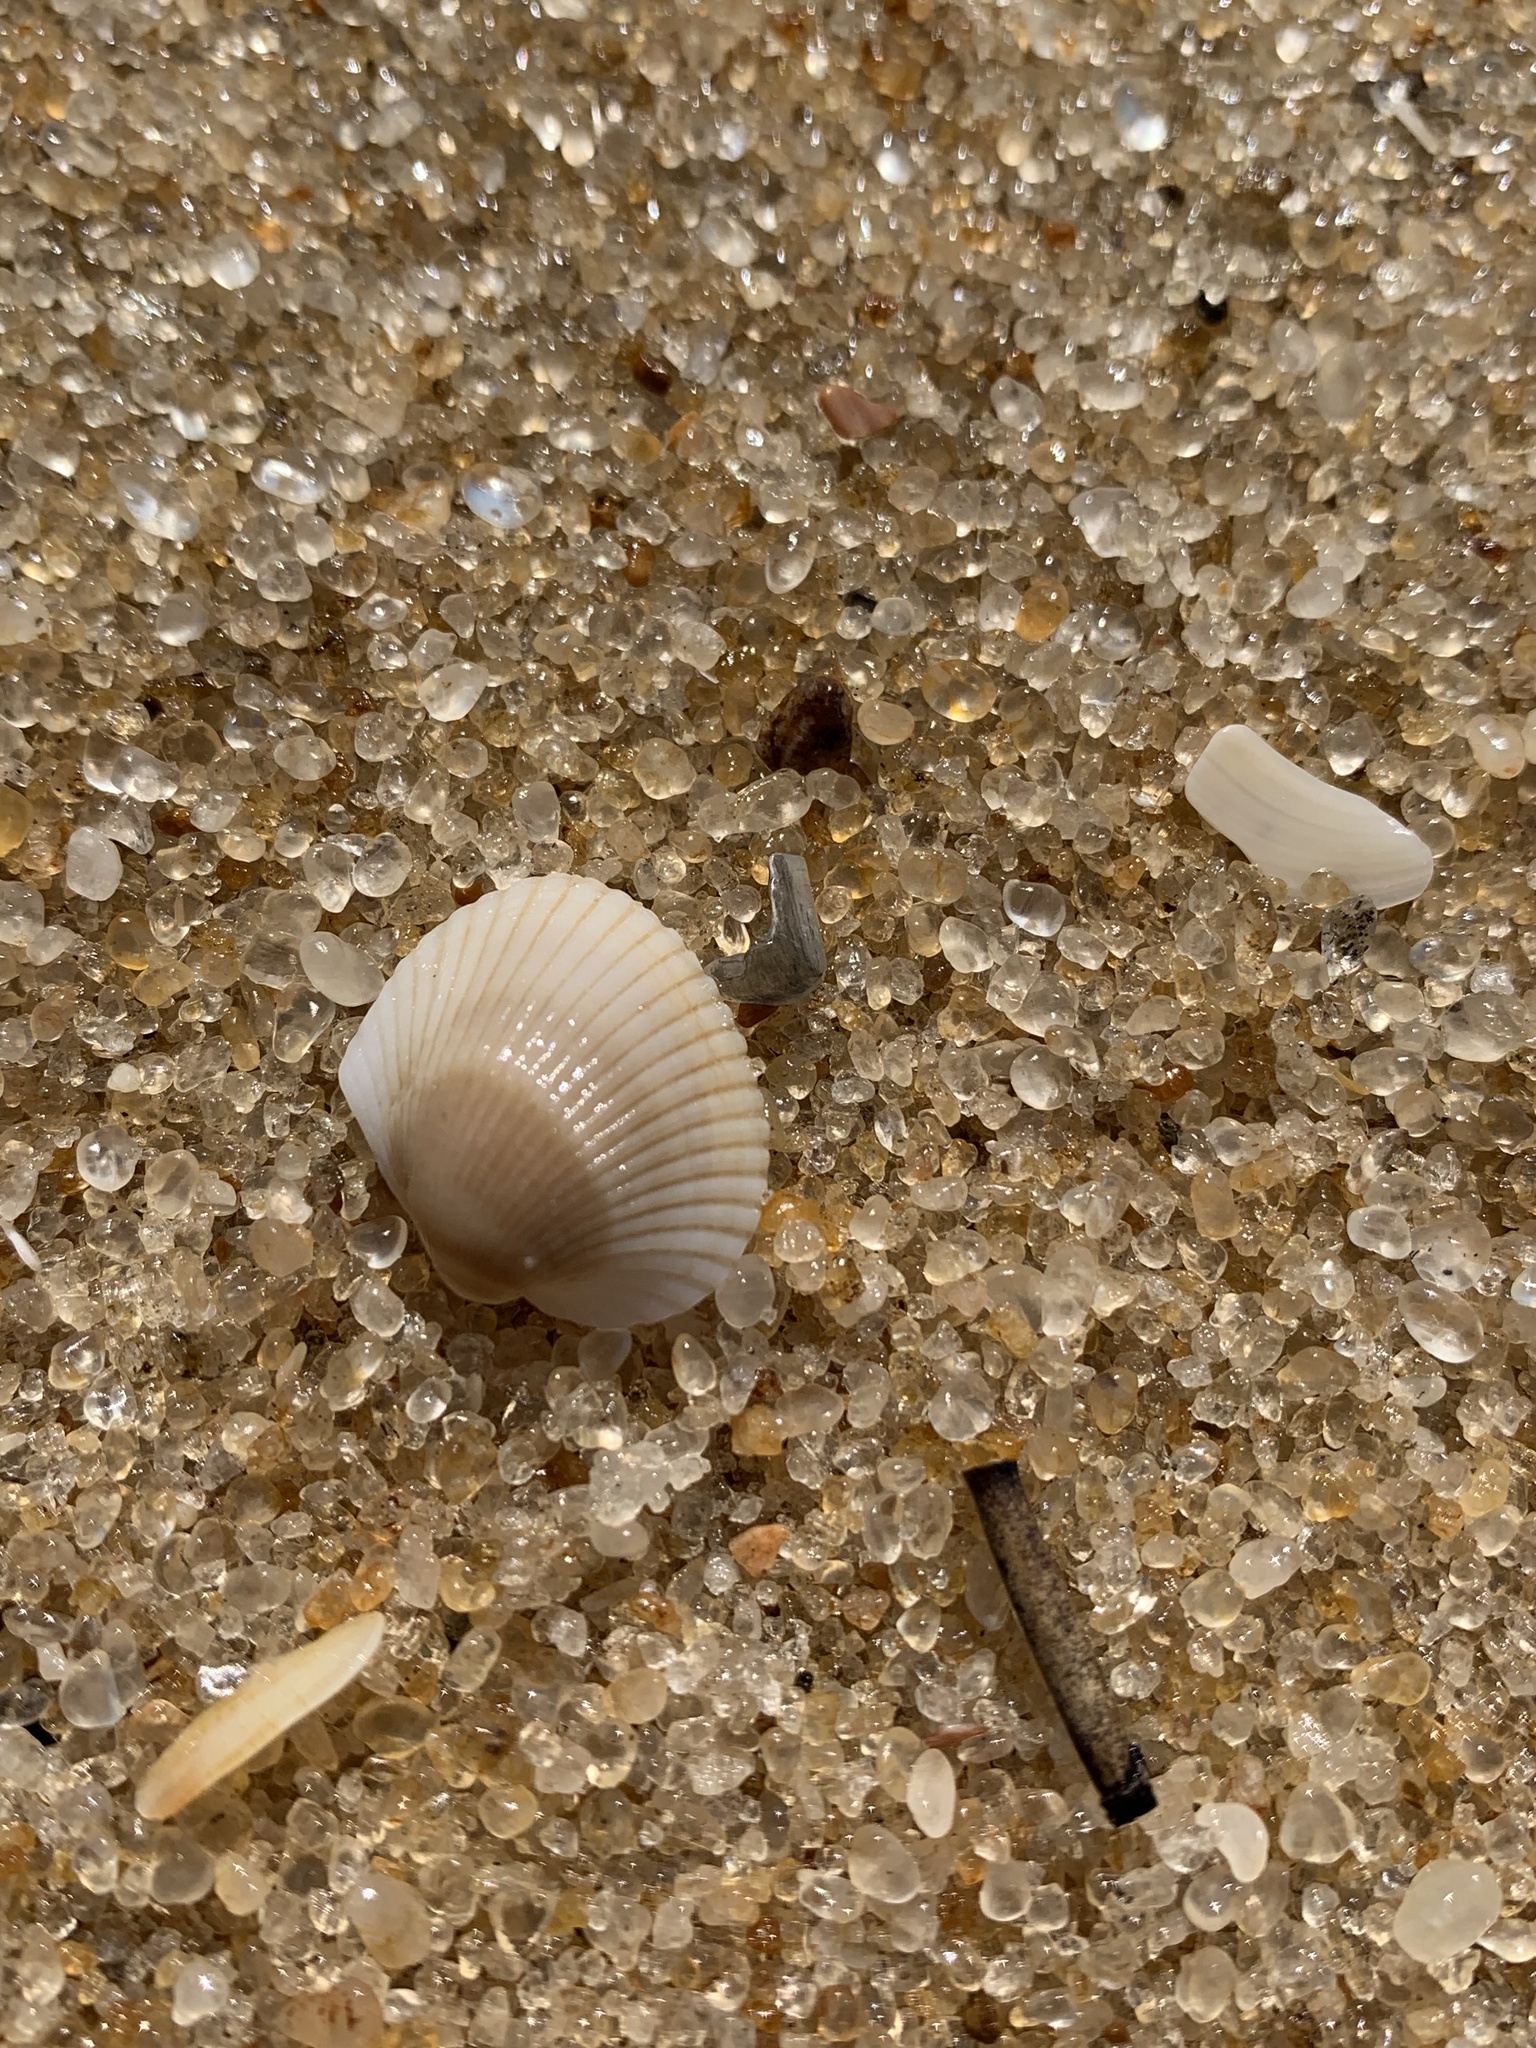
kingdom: Animalia
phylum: Mollusca
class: Bivalvia
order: Arcida
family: Arcidae
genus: Lunarca
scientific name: Lunarca ovalis
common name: Blood ark
